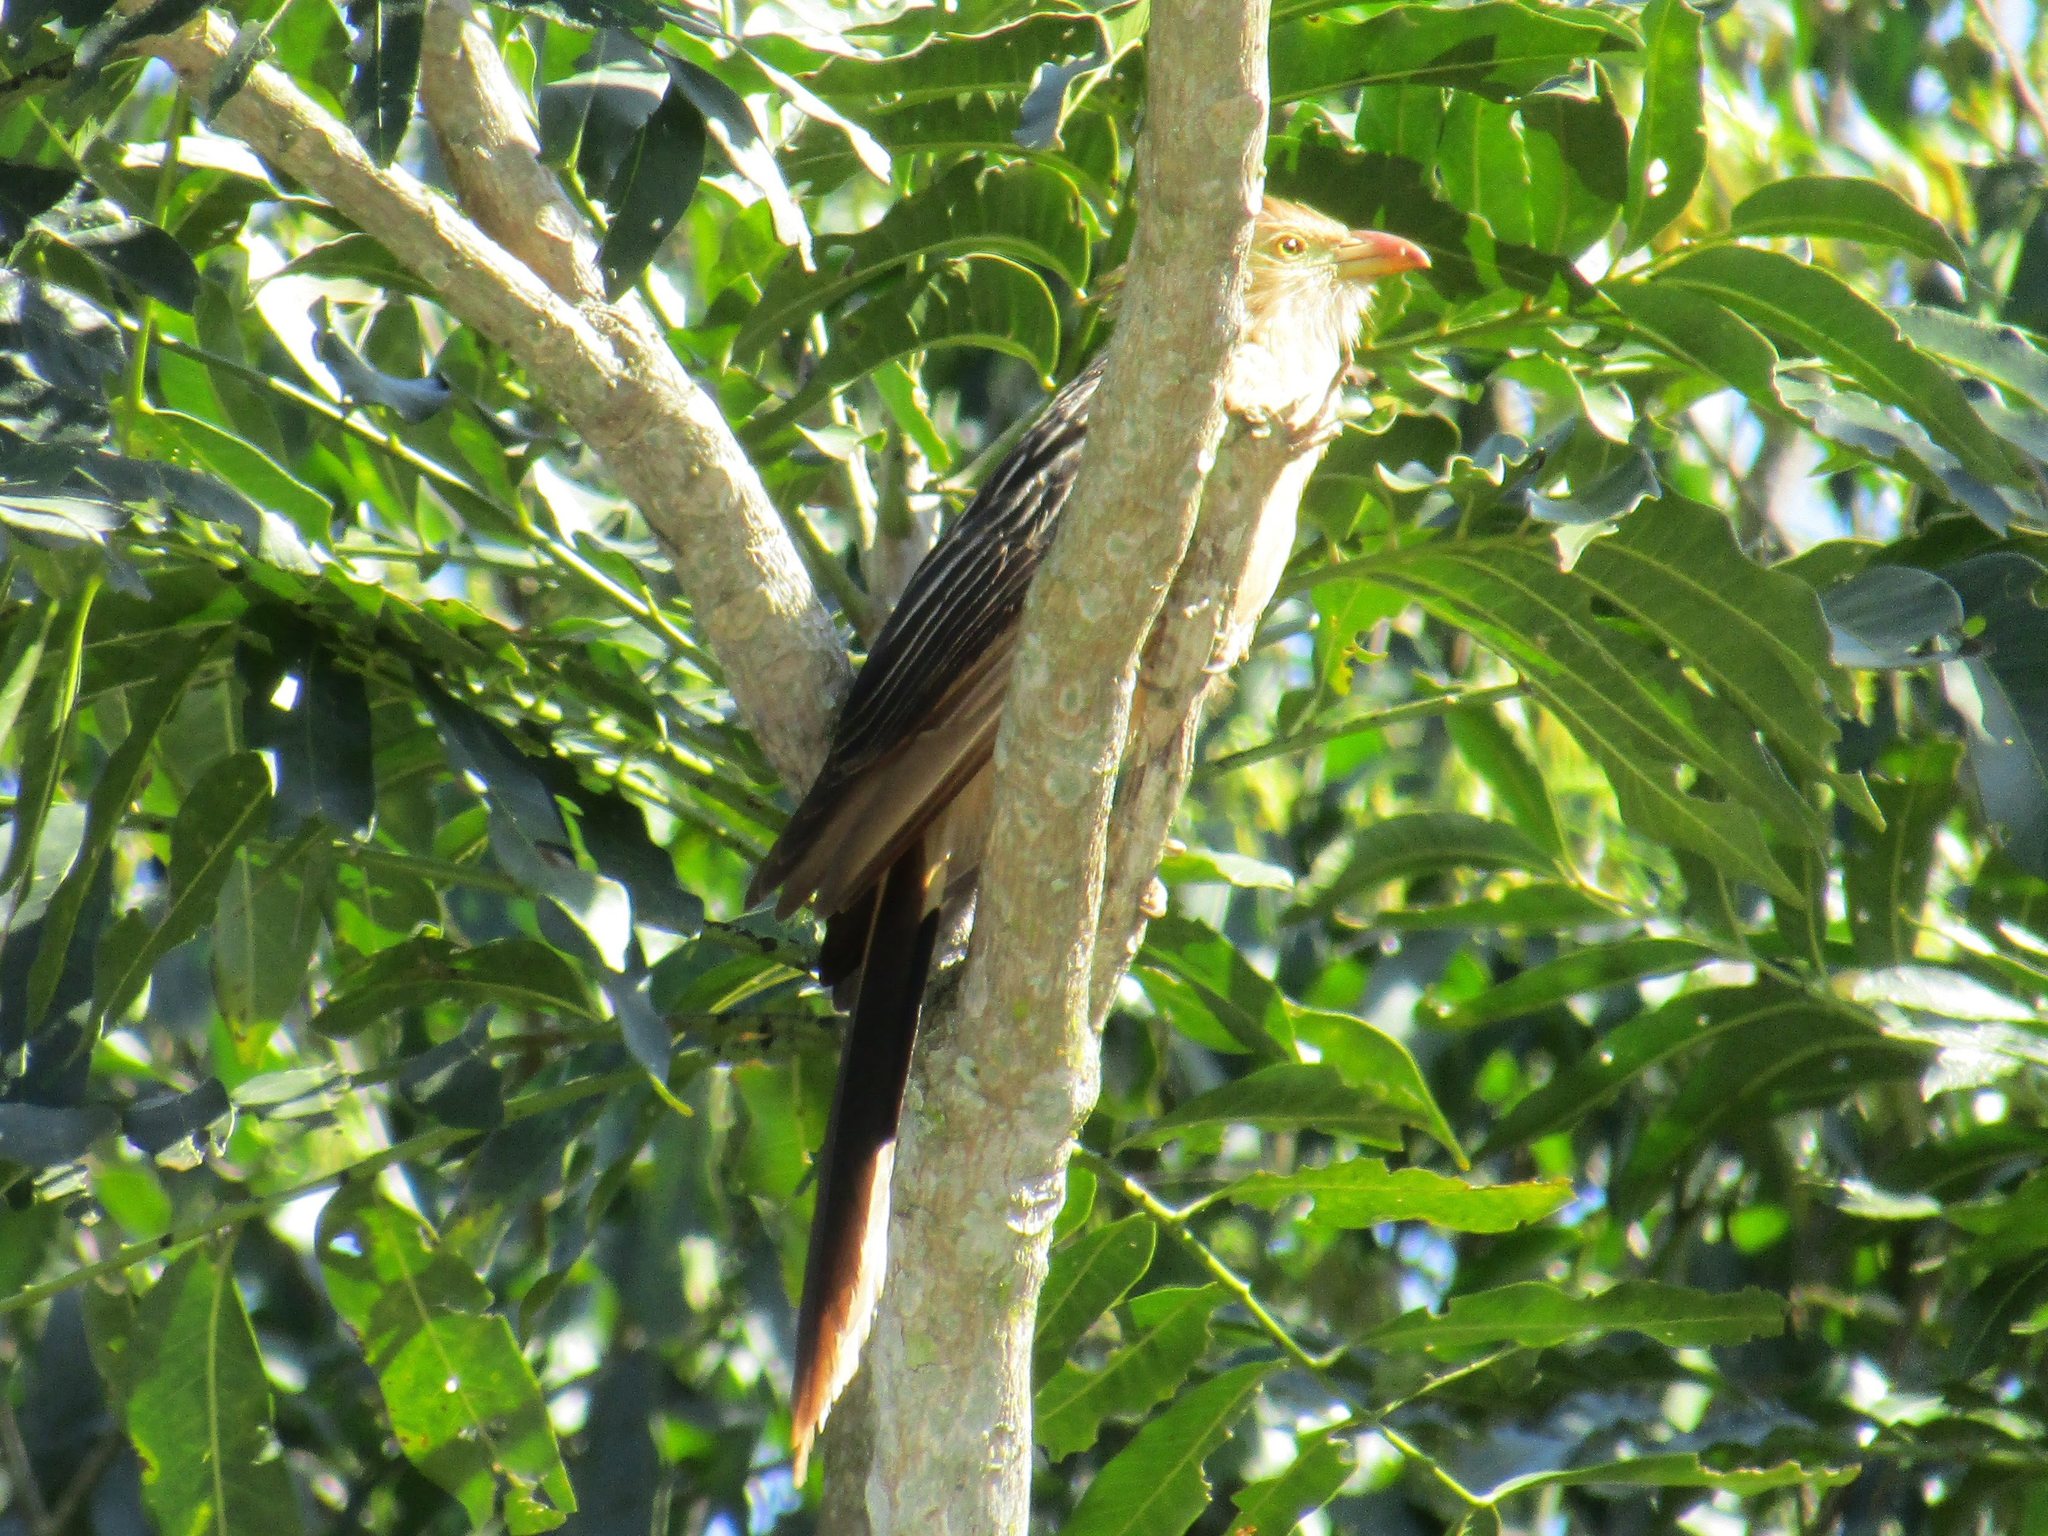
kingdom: Animalia
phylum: Chordata
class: Aves
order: Cuculiformes
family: Cuculidae
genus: Guira
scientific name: Guira guira
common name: Guira cuckoo
